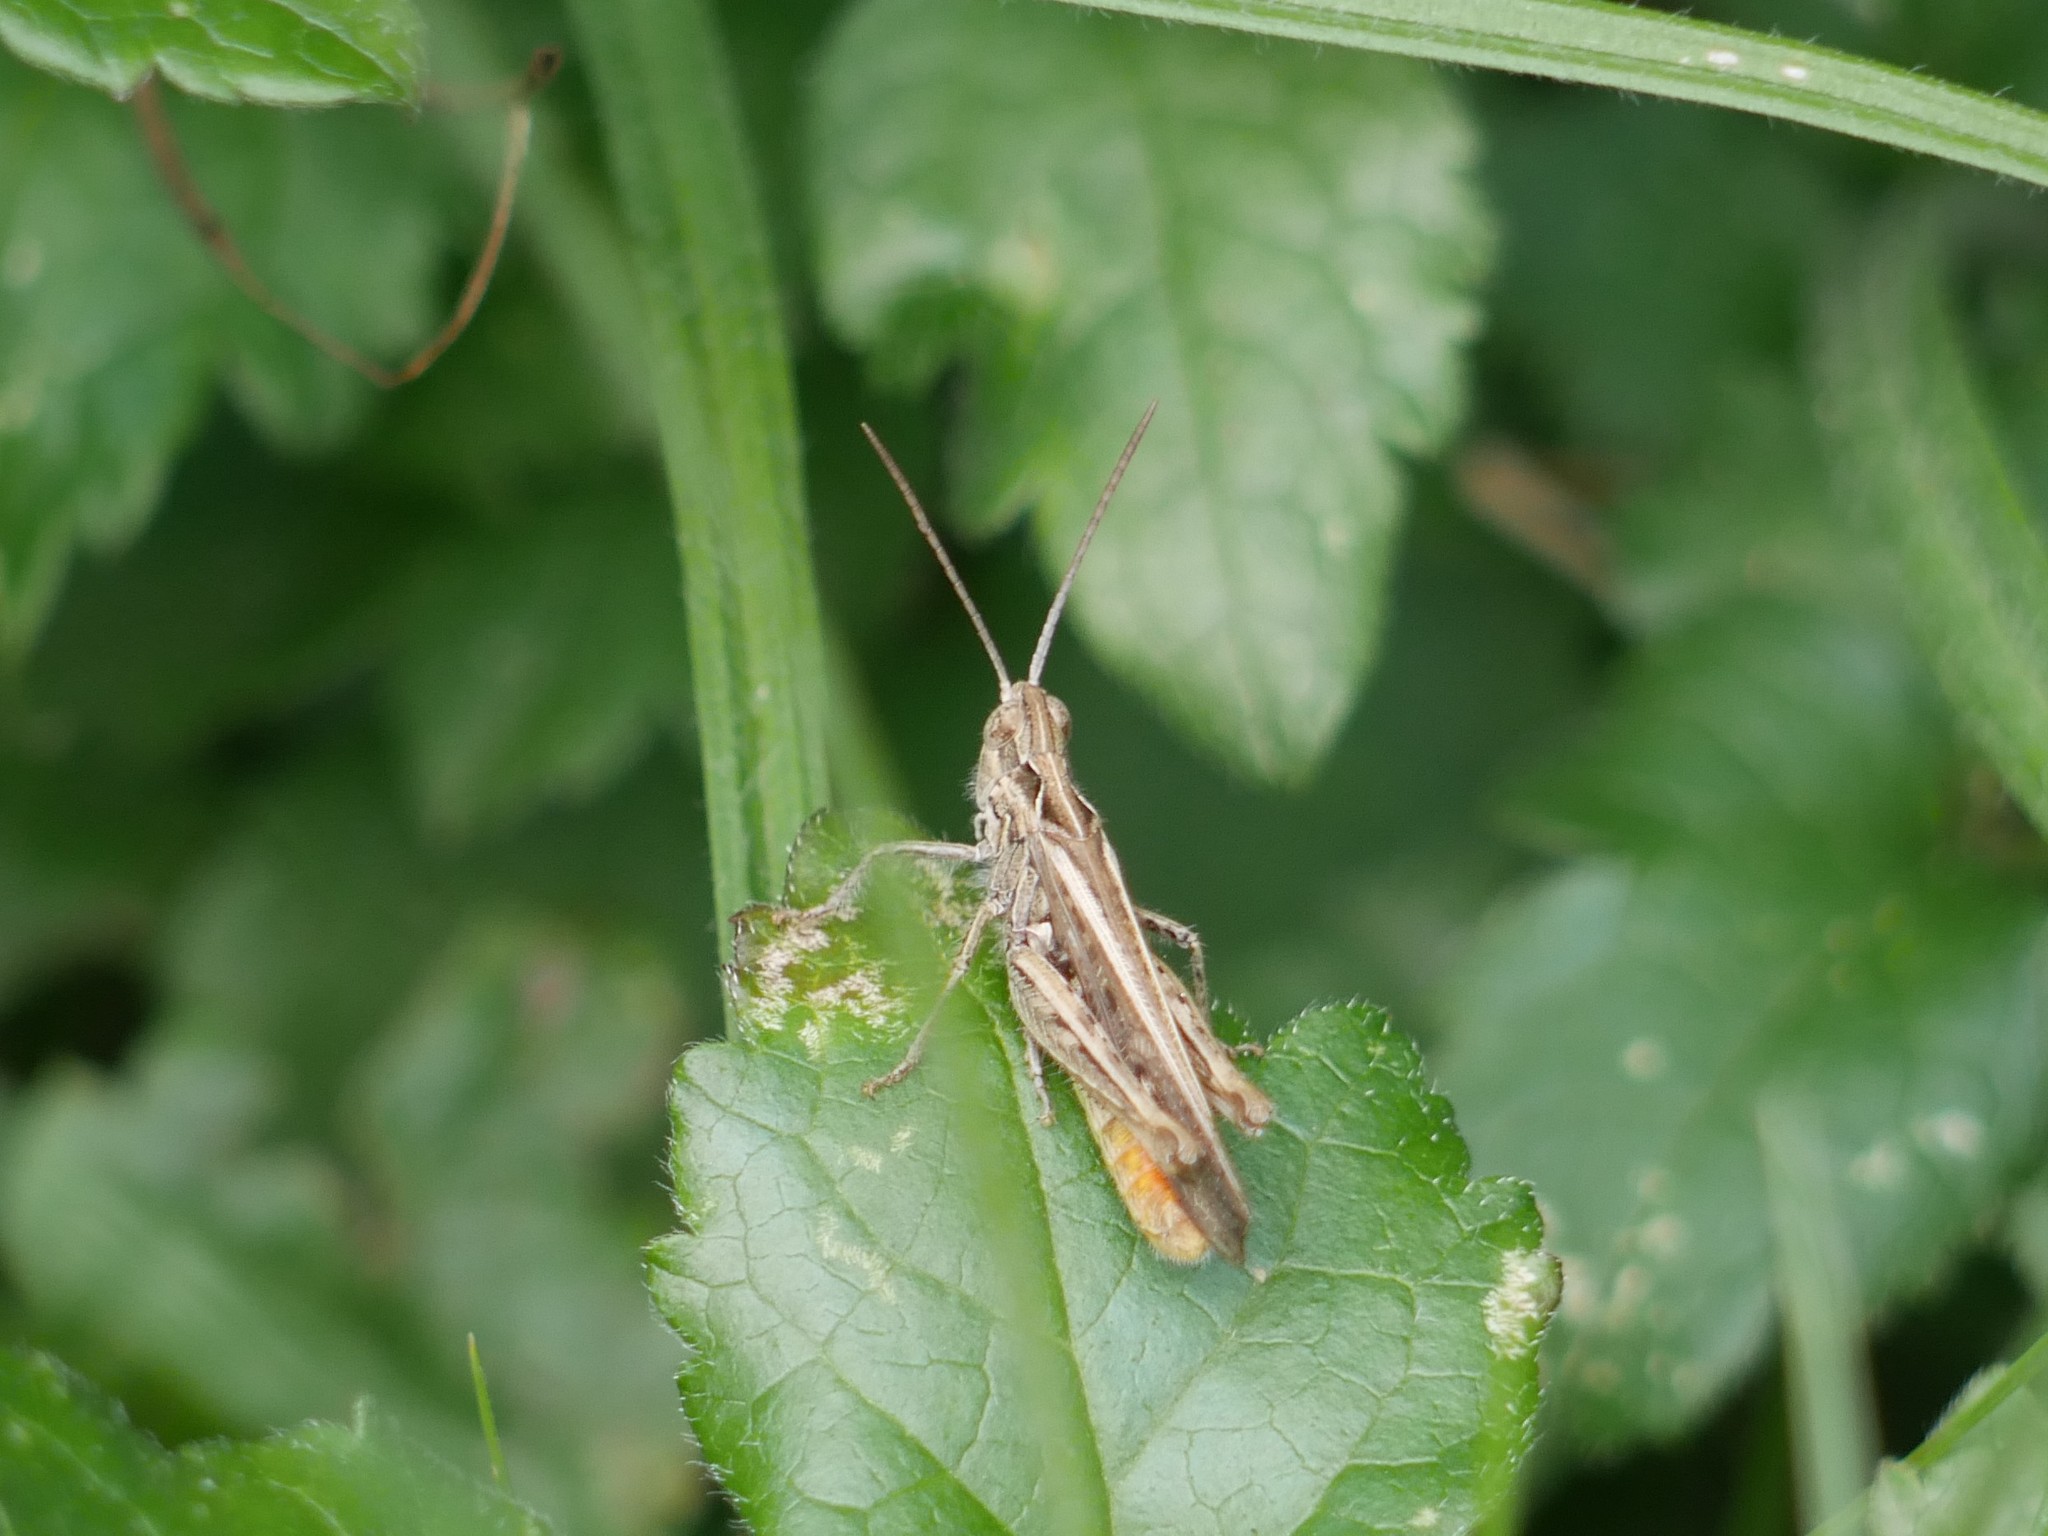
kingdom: Animalia
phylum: Arthropoda
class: Insecta
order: Orthoptera
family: Acrididae
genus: Chorthippus
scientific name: Chorthippus brunneus
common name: Field grasshopper
